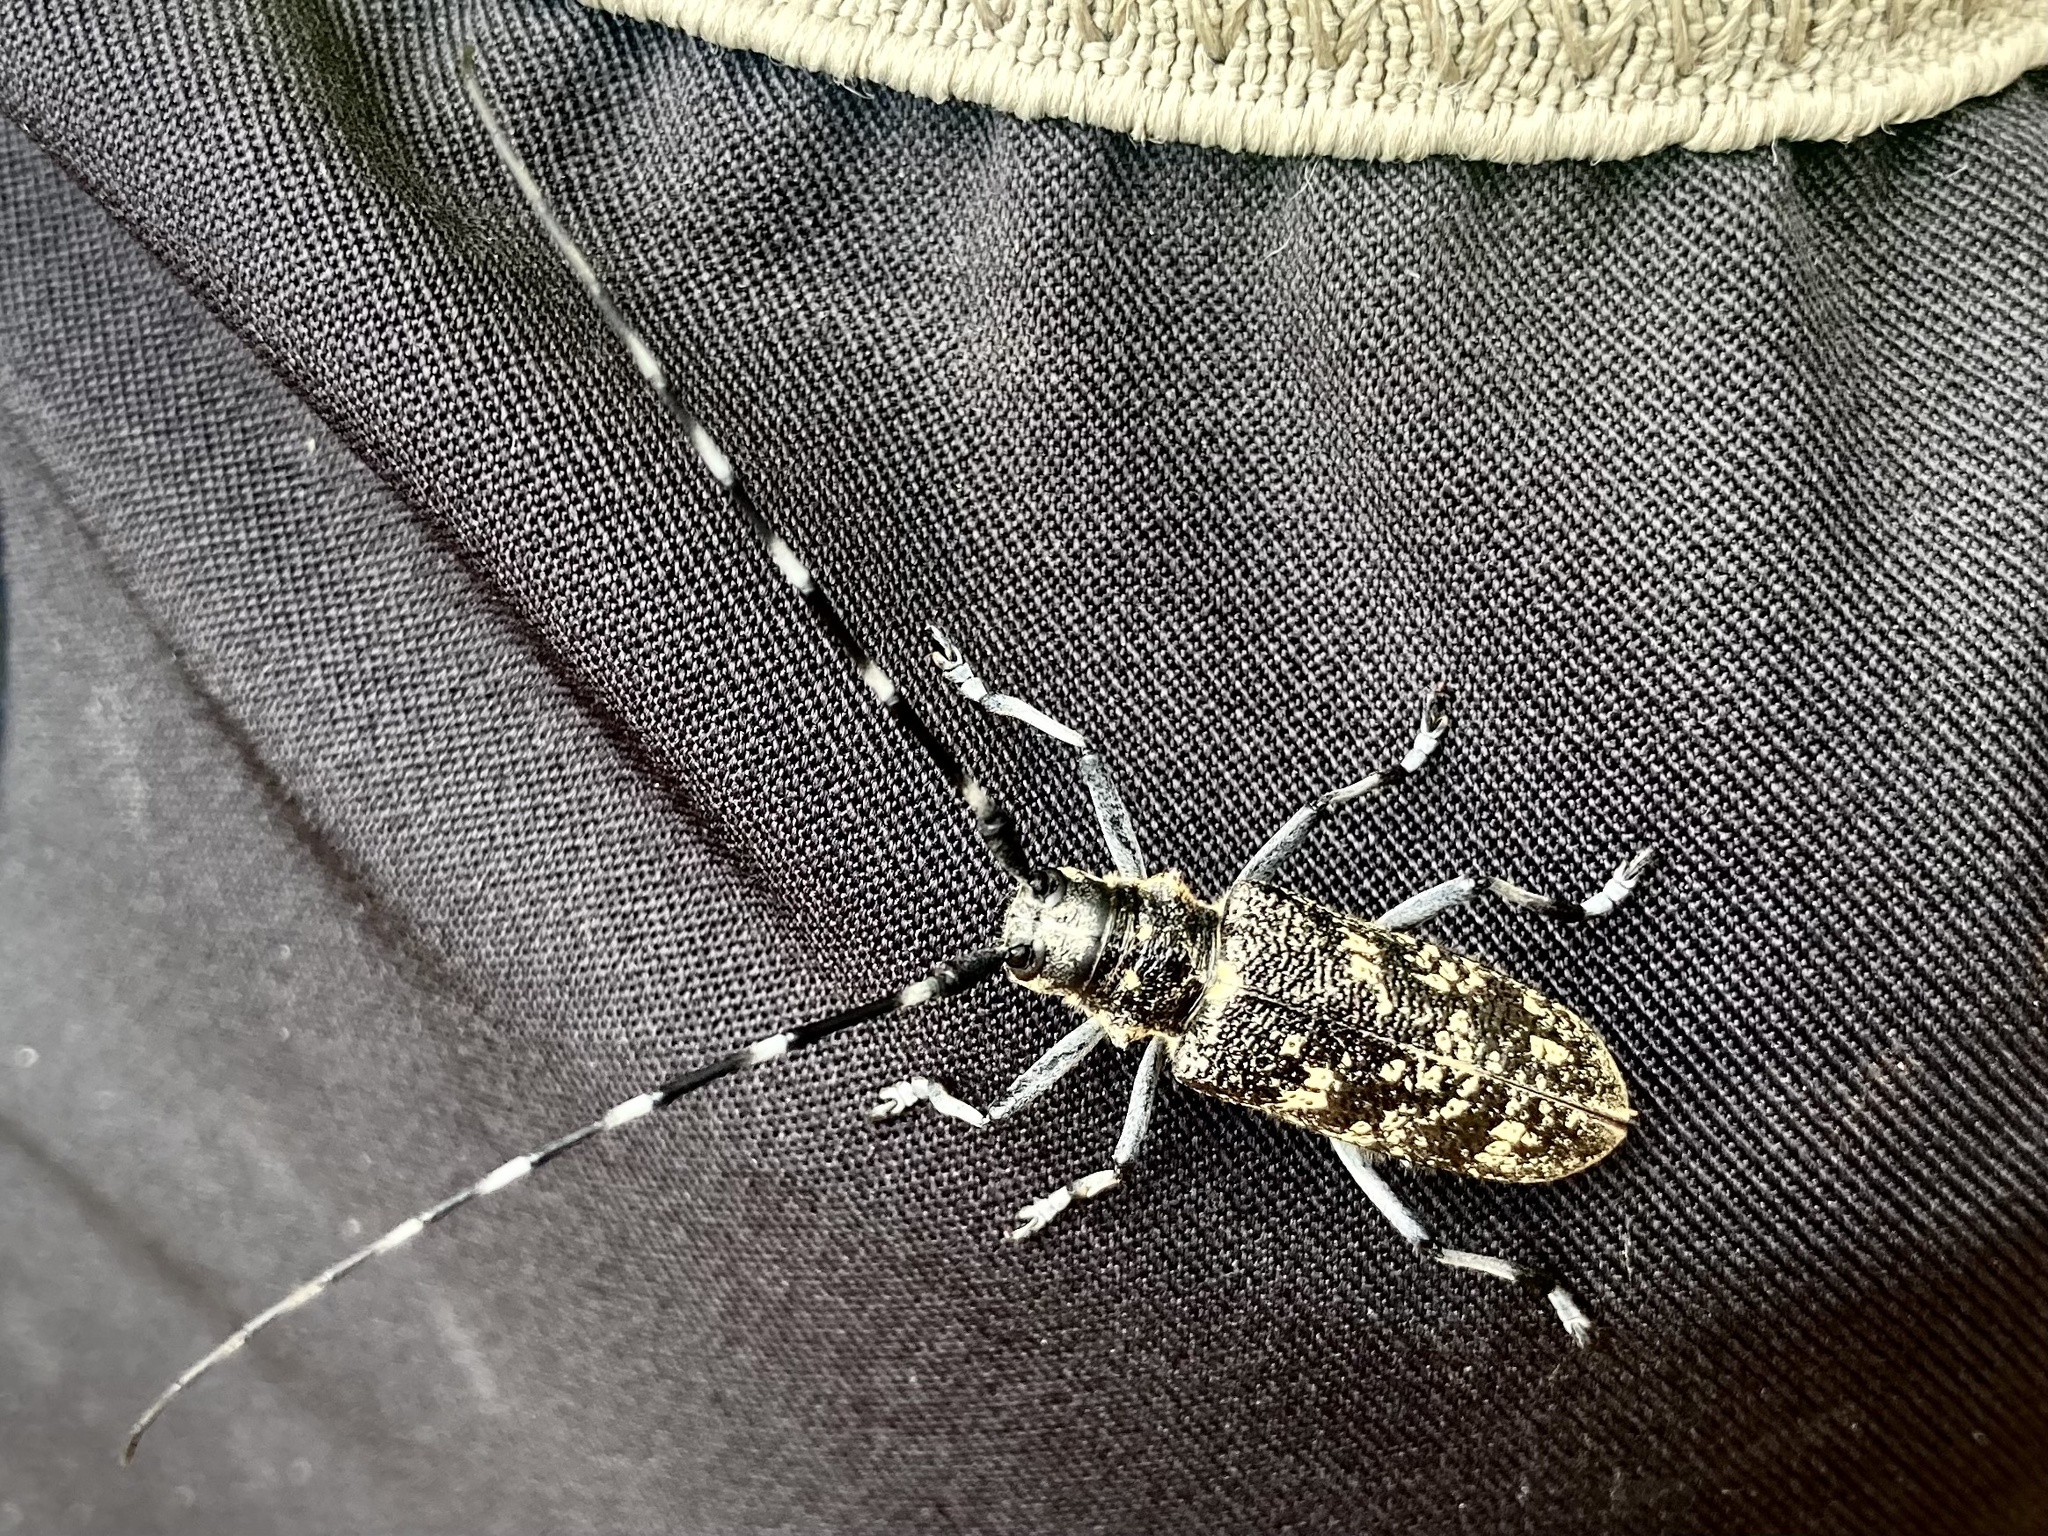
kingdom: Animalia
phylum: Arthropoda
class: Insecta
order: Coleoptera
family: Cerambycidae
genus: Monochamus
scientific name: Monochamus sutor
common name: Pine sawyer
